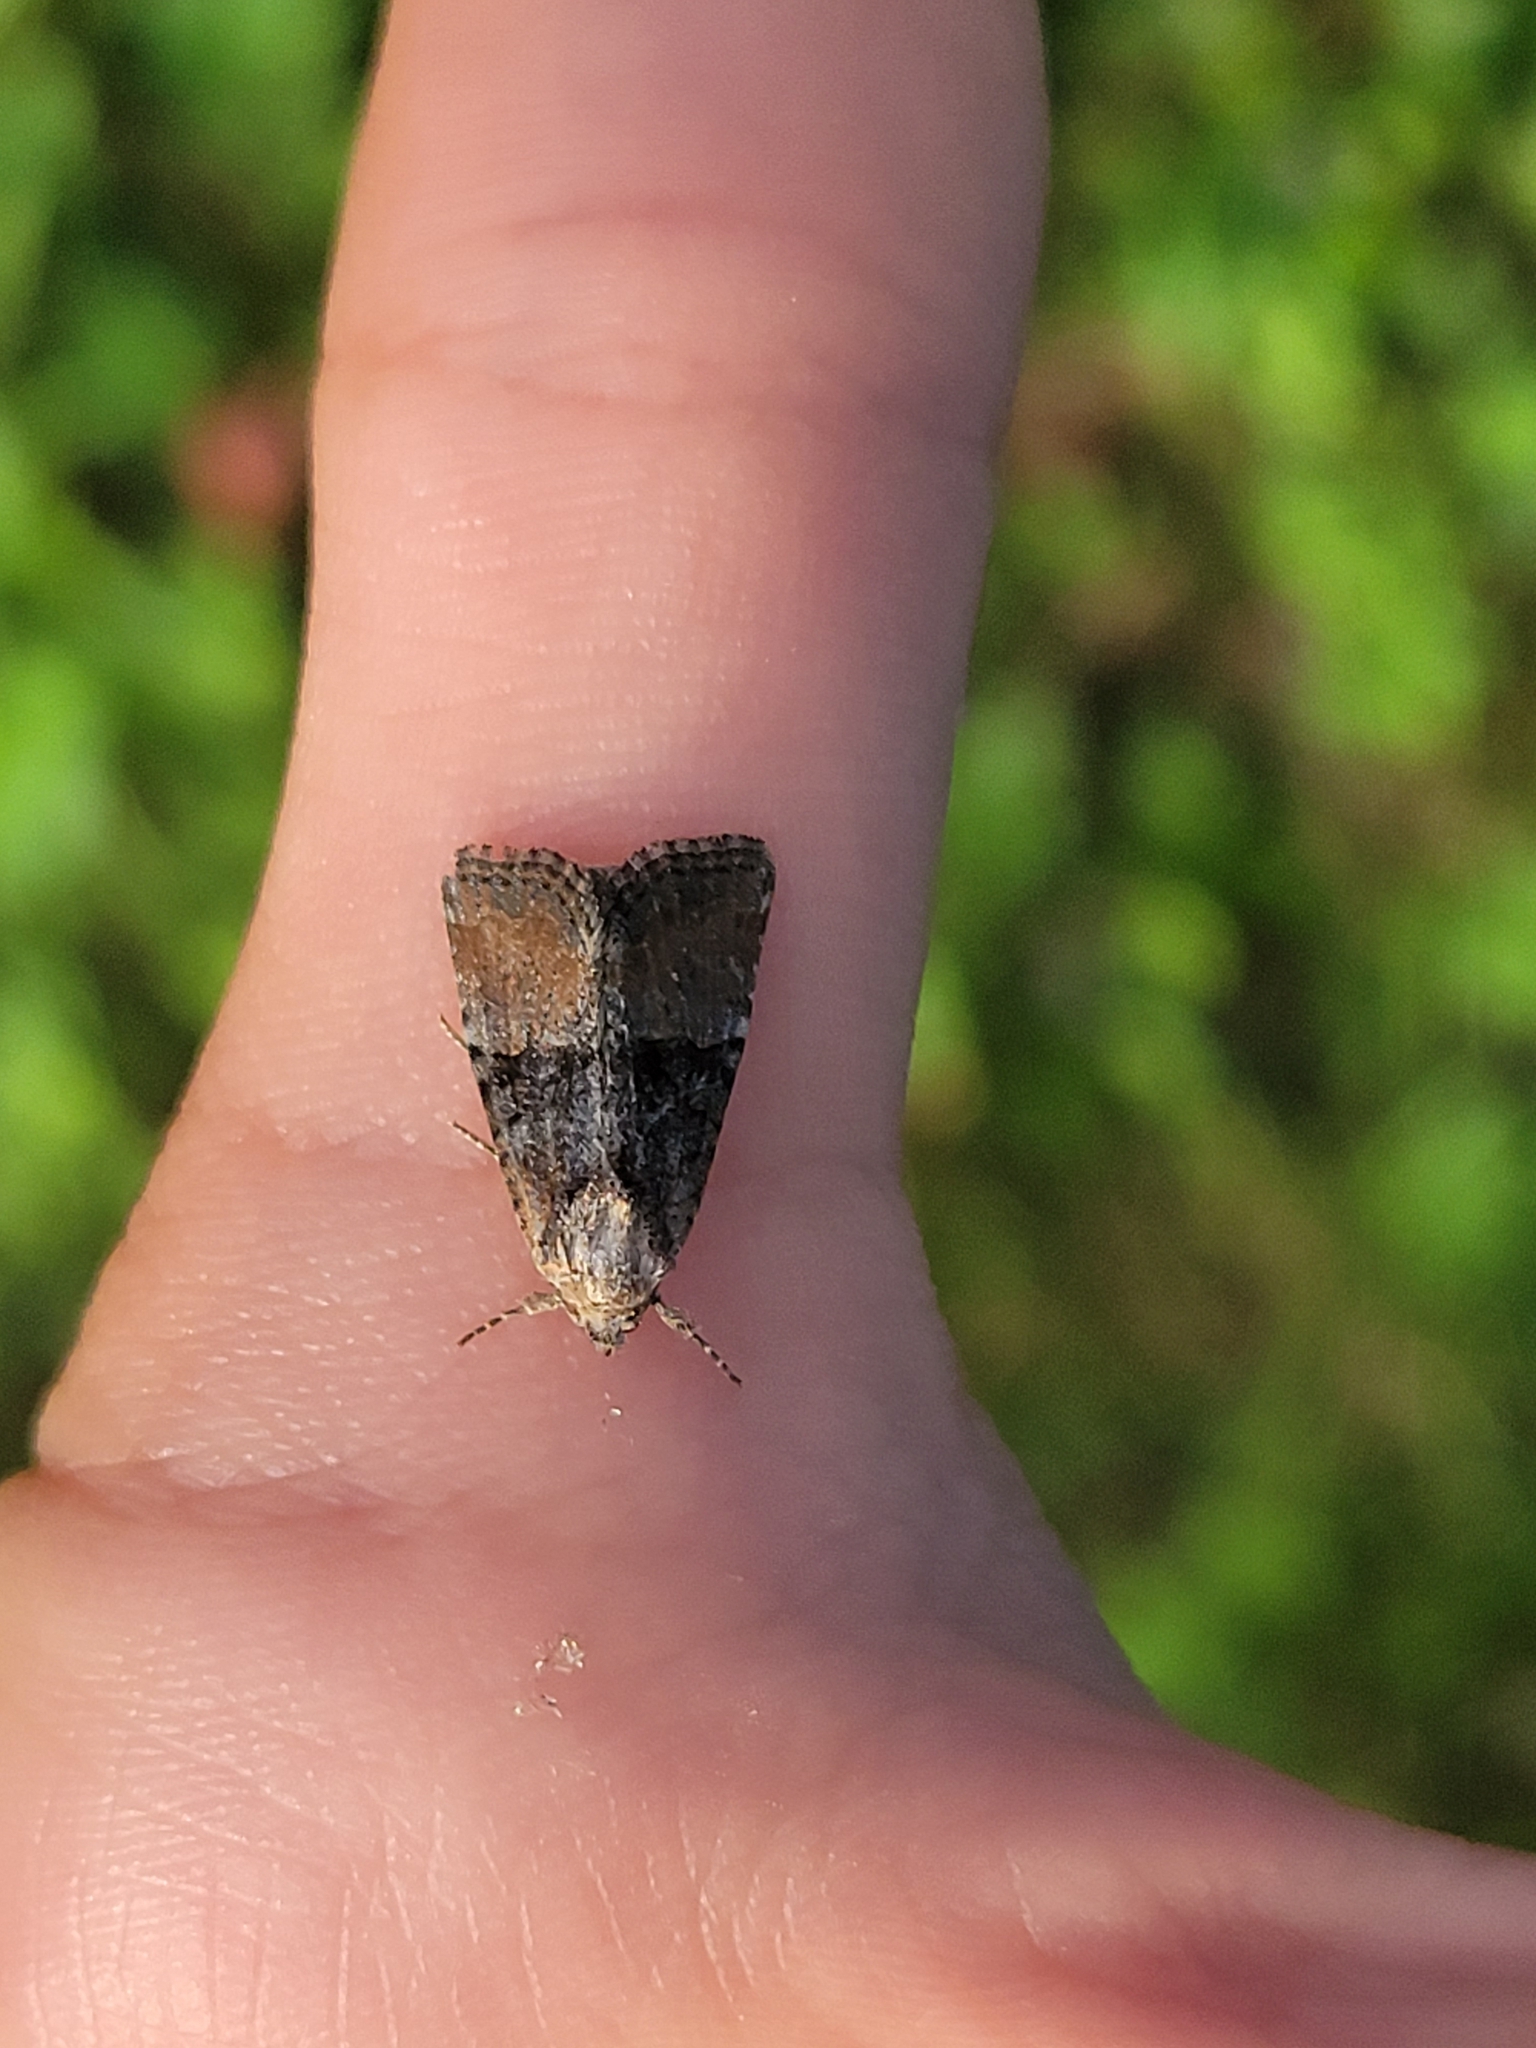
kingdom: Animalia
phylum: Arthropoda
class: Insecta
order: Lepidoptera
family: Noctuidae
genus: Mesoligia
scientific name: Mesoligia furuncula
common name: Cloaked minor
